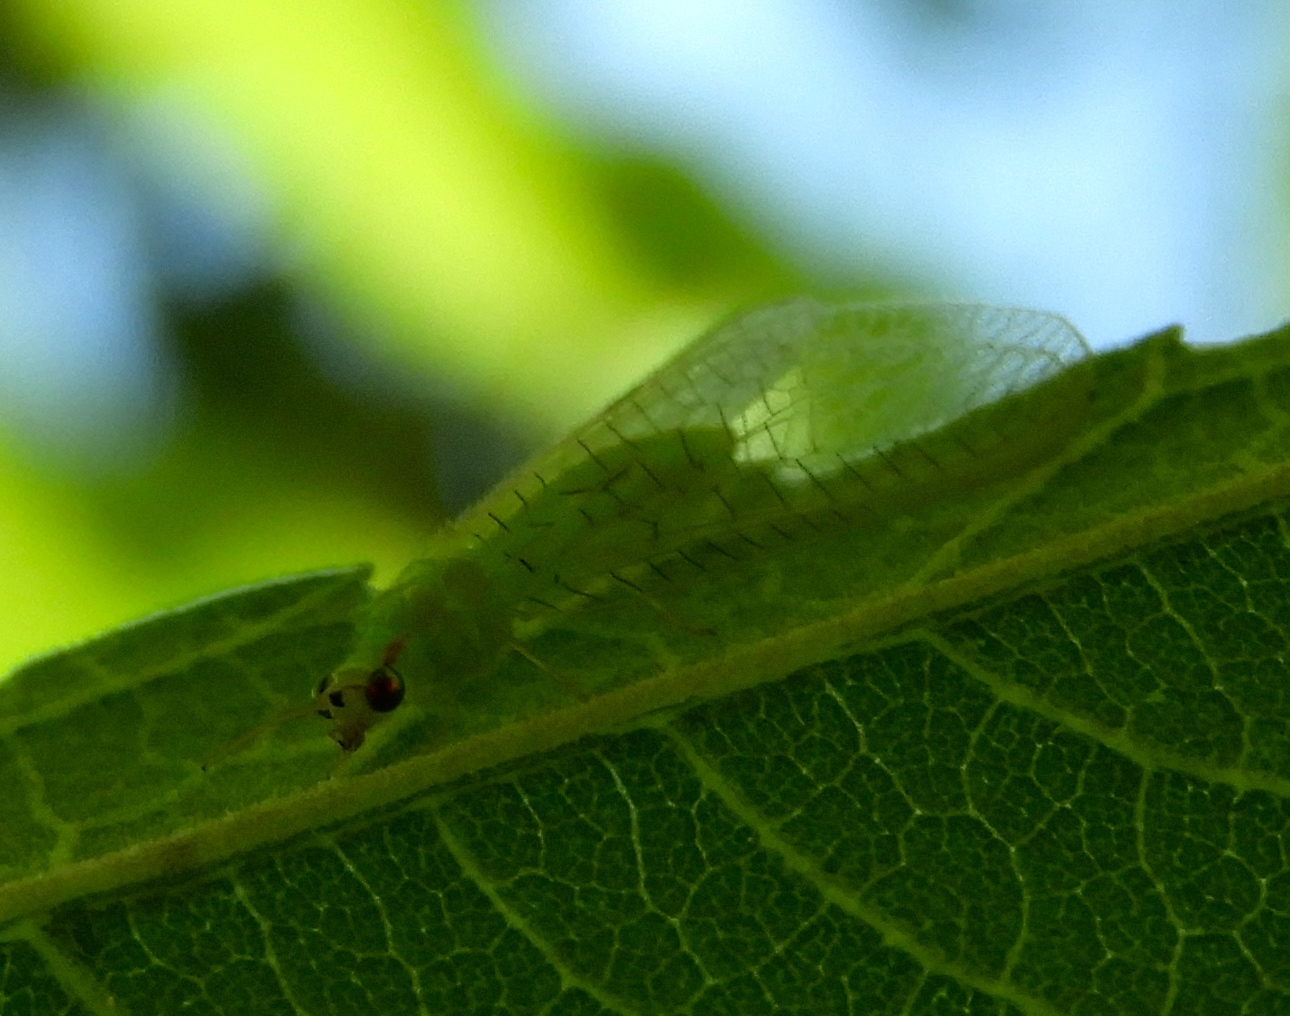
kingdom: Animalia
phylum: Arthropoda
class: Insecta
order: Neuroptera
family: Chrysopidae
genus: Ceraeochrysa
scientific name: Ceraeochrysa
